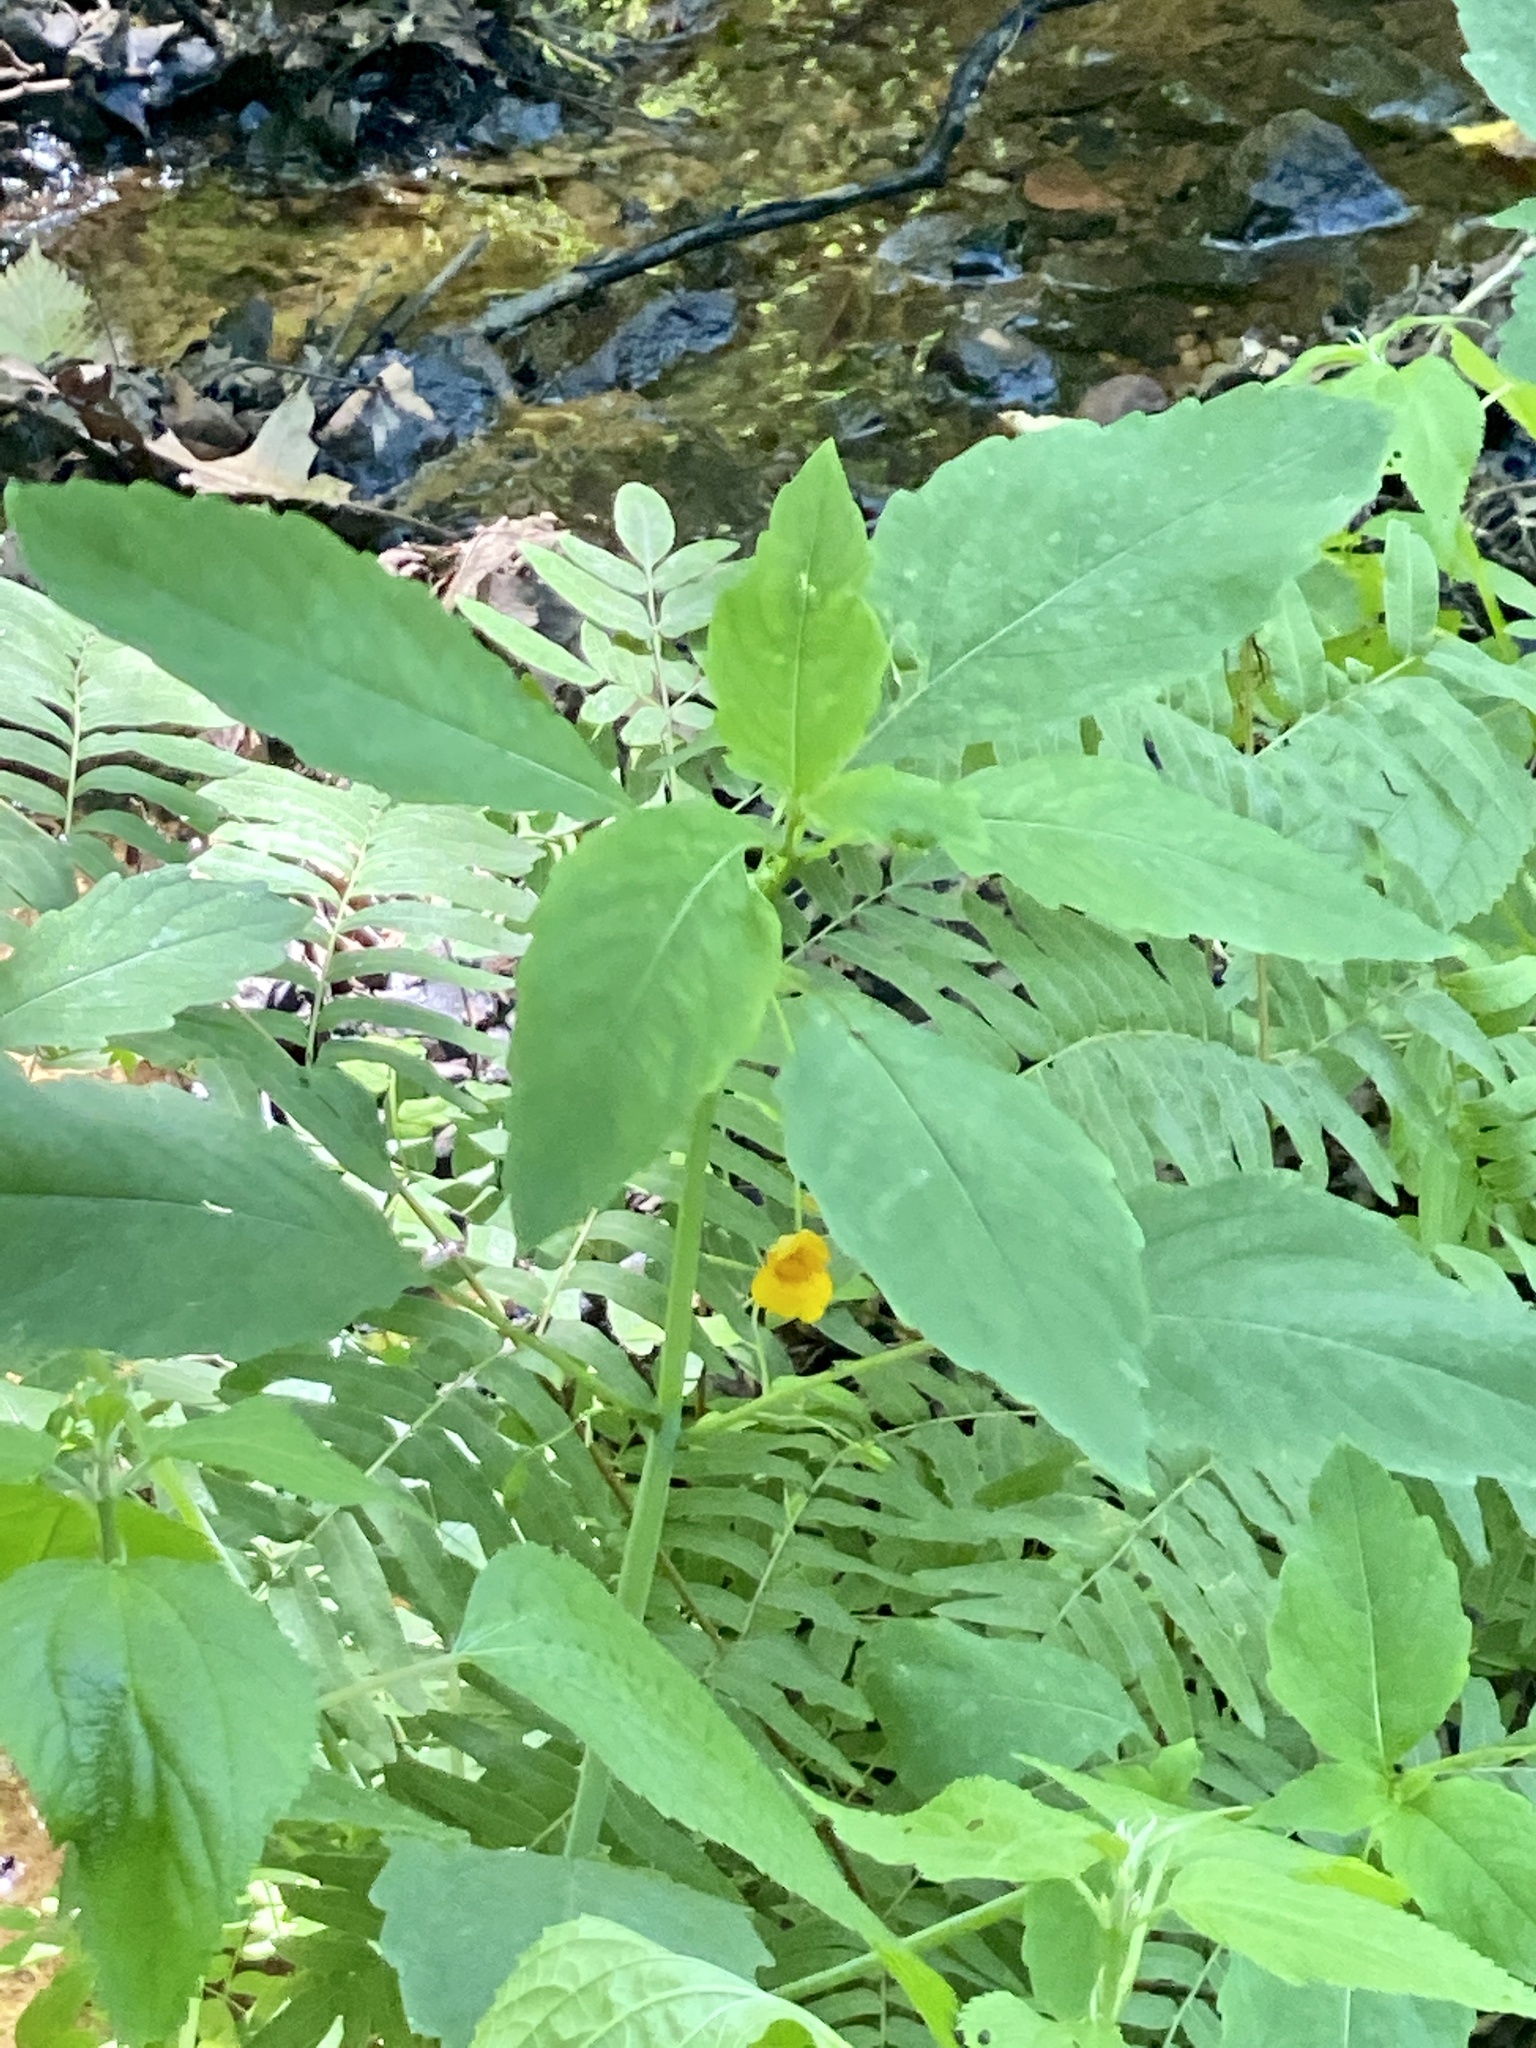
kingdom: Plantae
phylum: Tracheophyta
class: Magnoliopsida
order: Ericales
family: Balsaminaceae
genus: Impatiens
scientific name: Impatiens capensis
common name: Orange balsam
